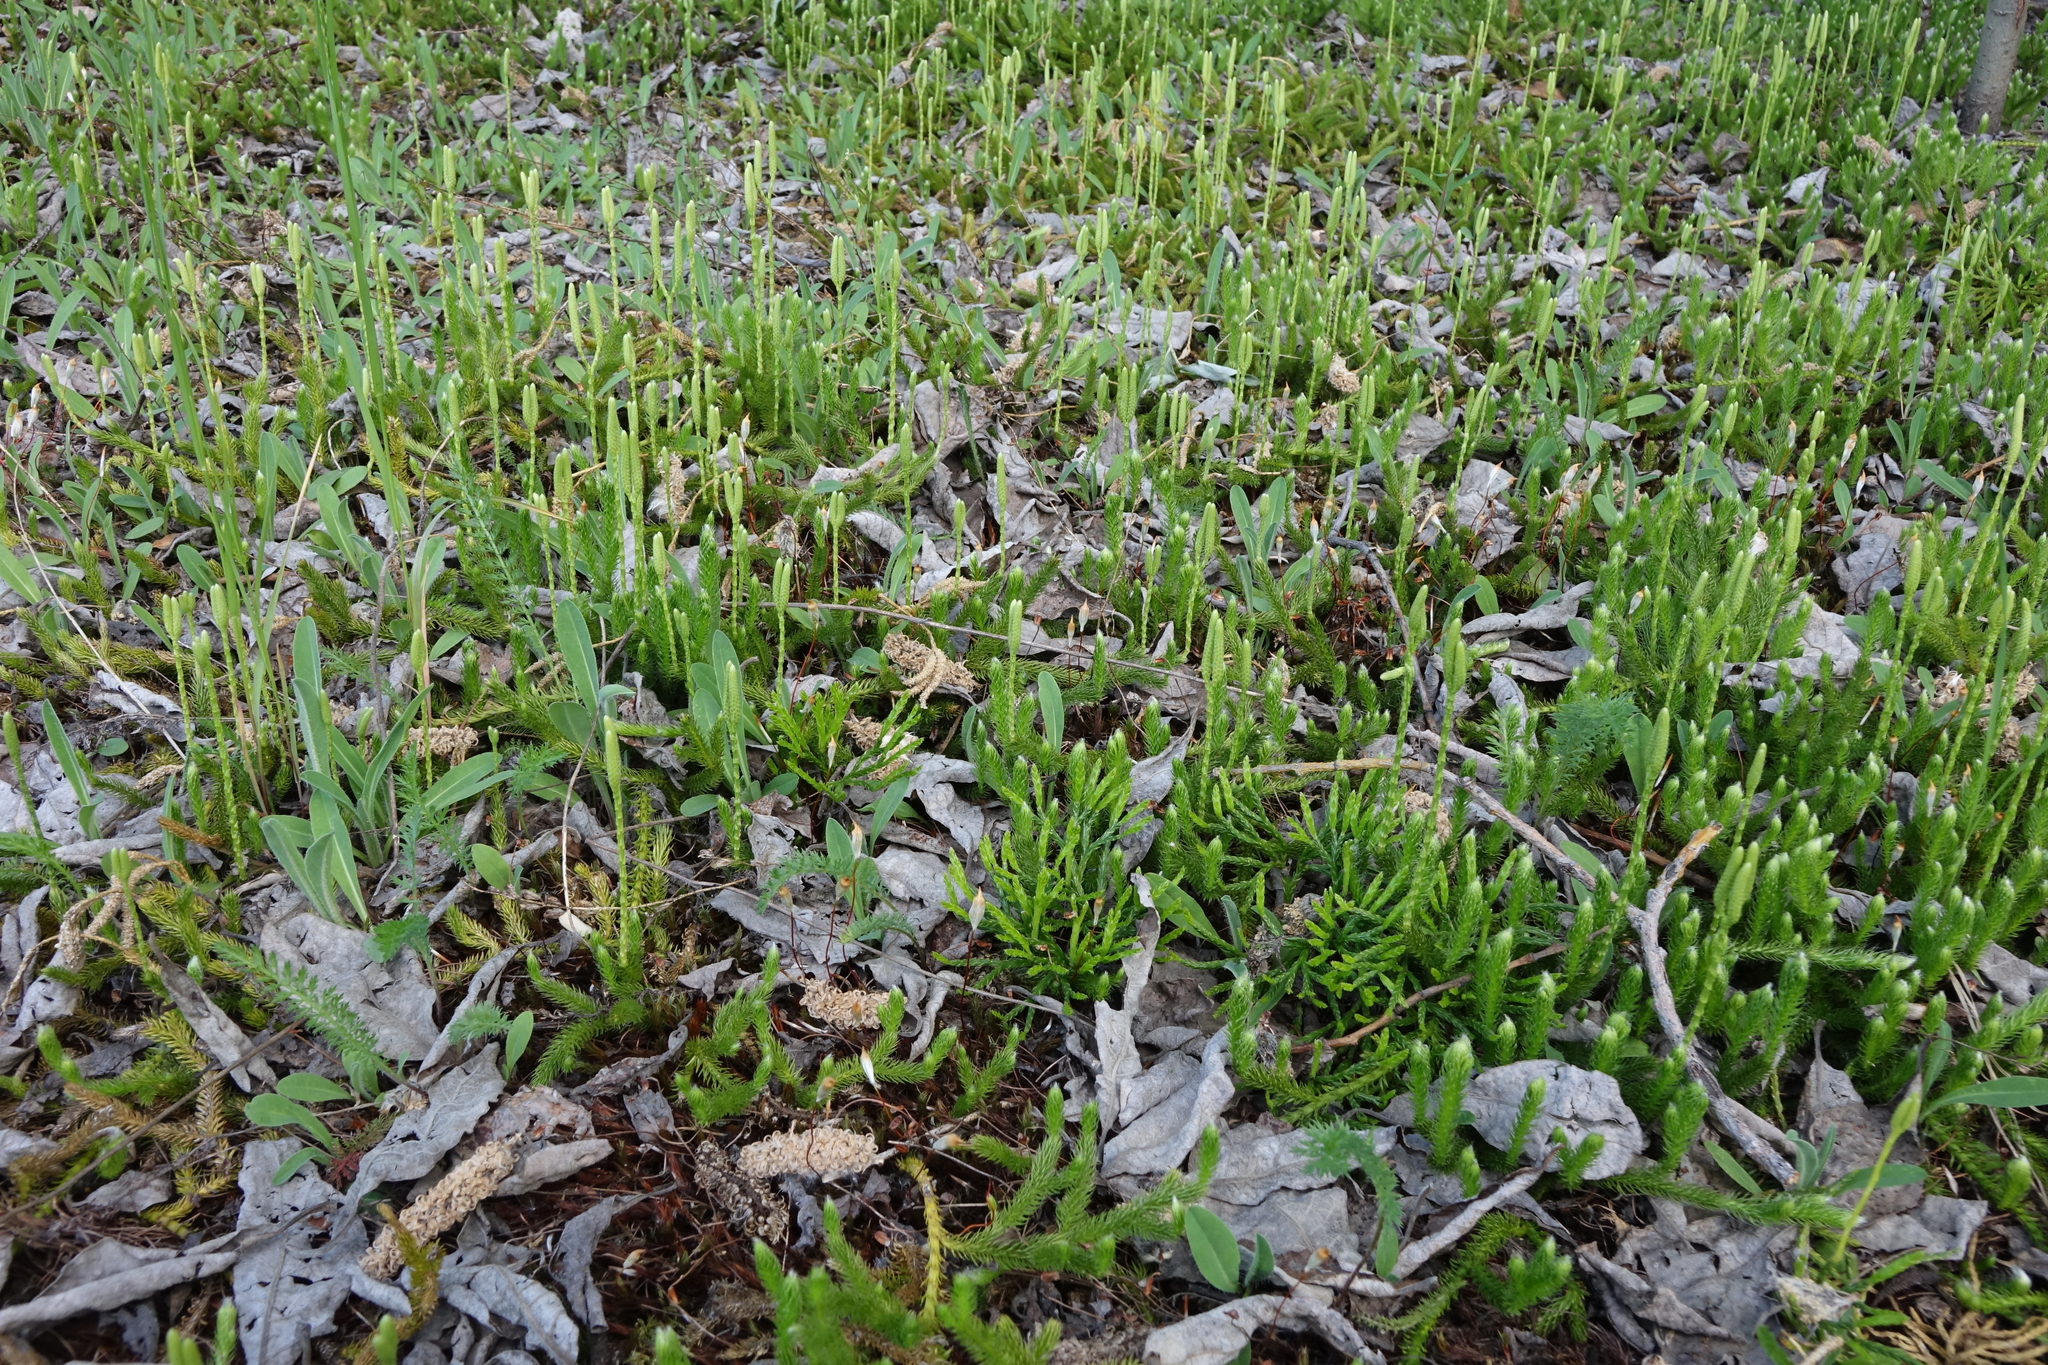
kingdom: Plantae
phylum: Tracheophyta
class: Lycopodiopsida
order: Lycopodiales
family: Lycopodiaceae
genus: Lycopodium
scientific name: Lycopodium clavatum
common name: Stag's-horn clubmoss
